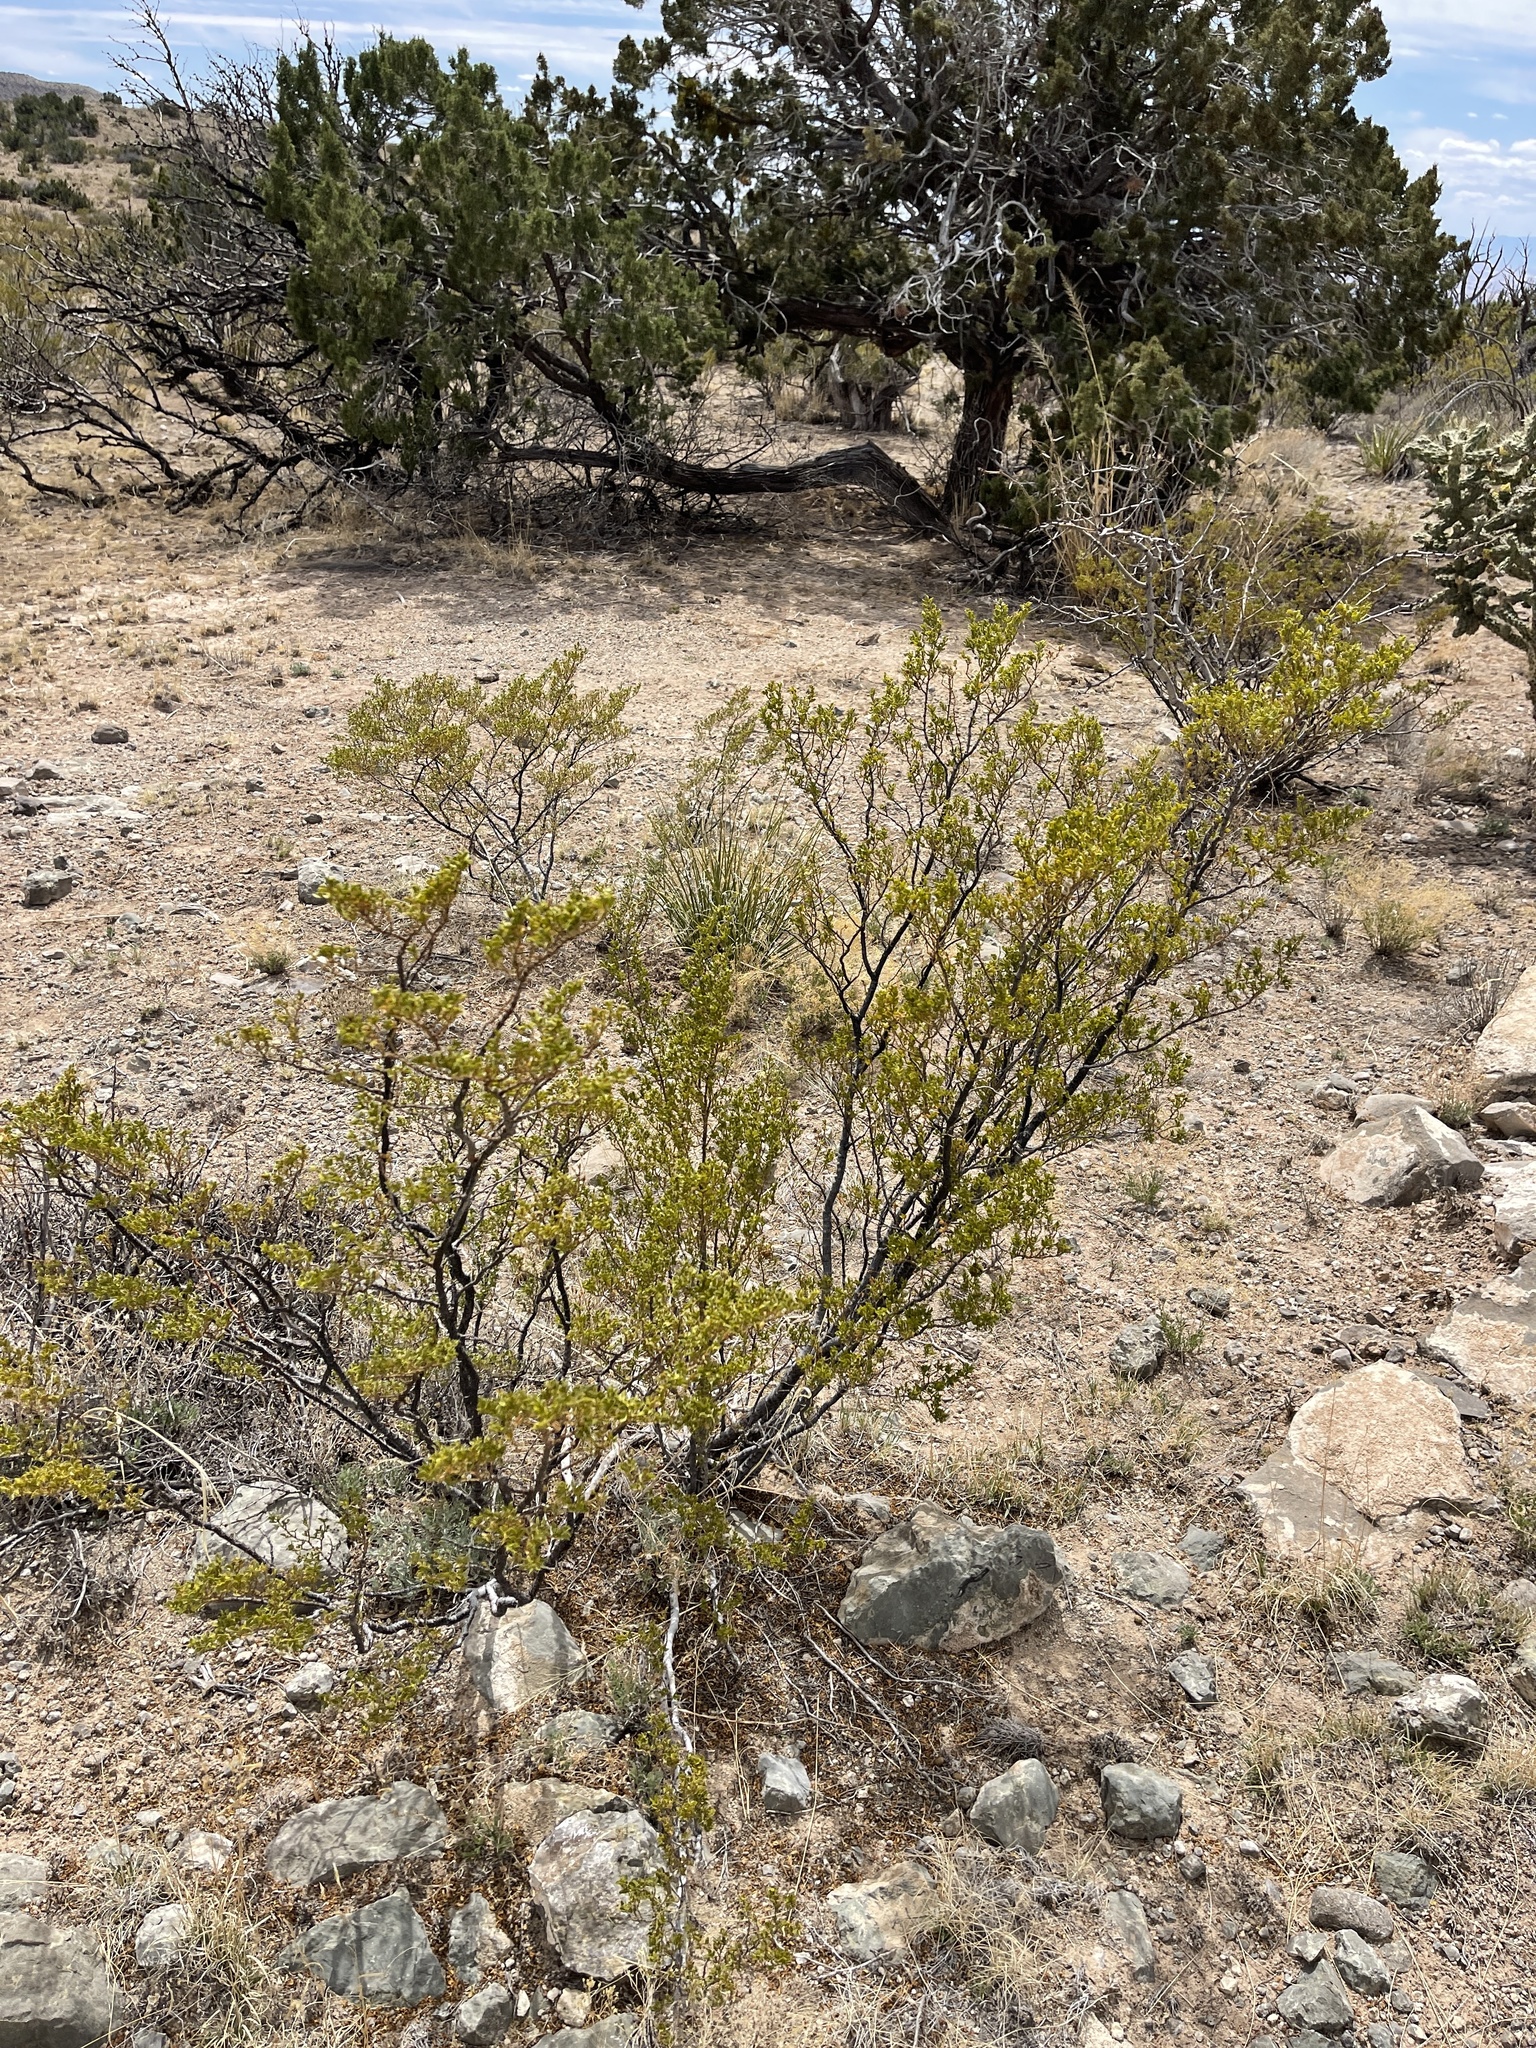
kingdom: Plantae
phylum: Tracheophyta
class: Magnoliopsida
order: Zygophyllales
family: Zygophyllaceae
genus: Larrea
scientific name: Larrea tridentata
